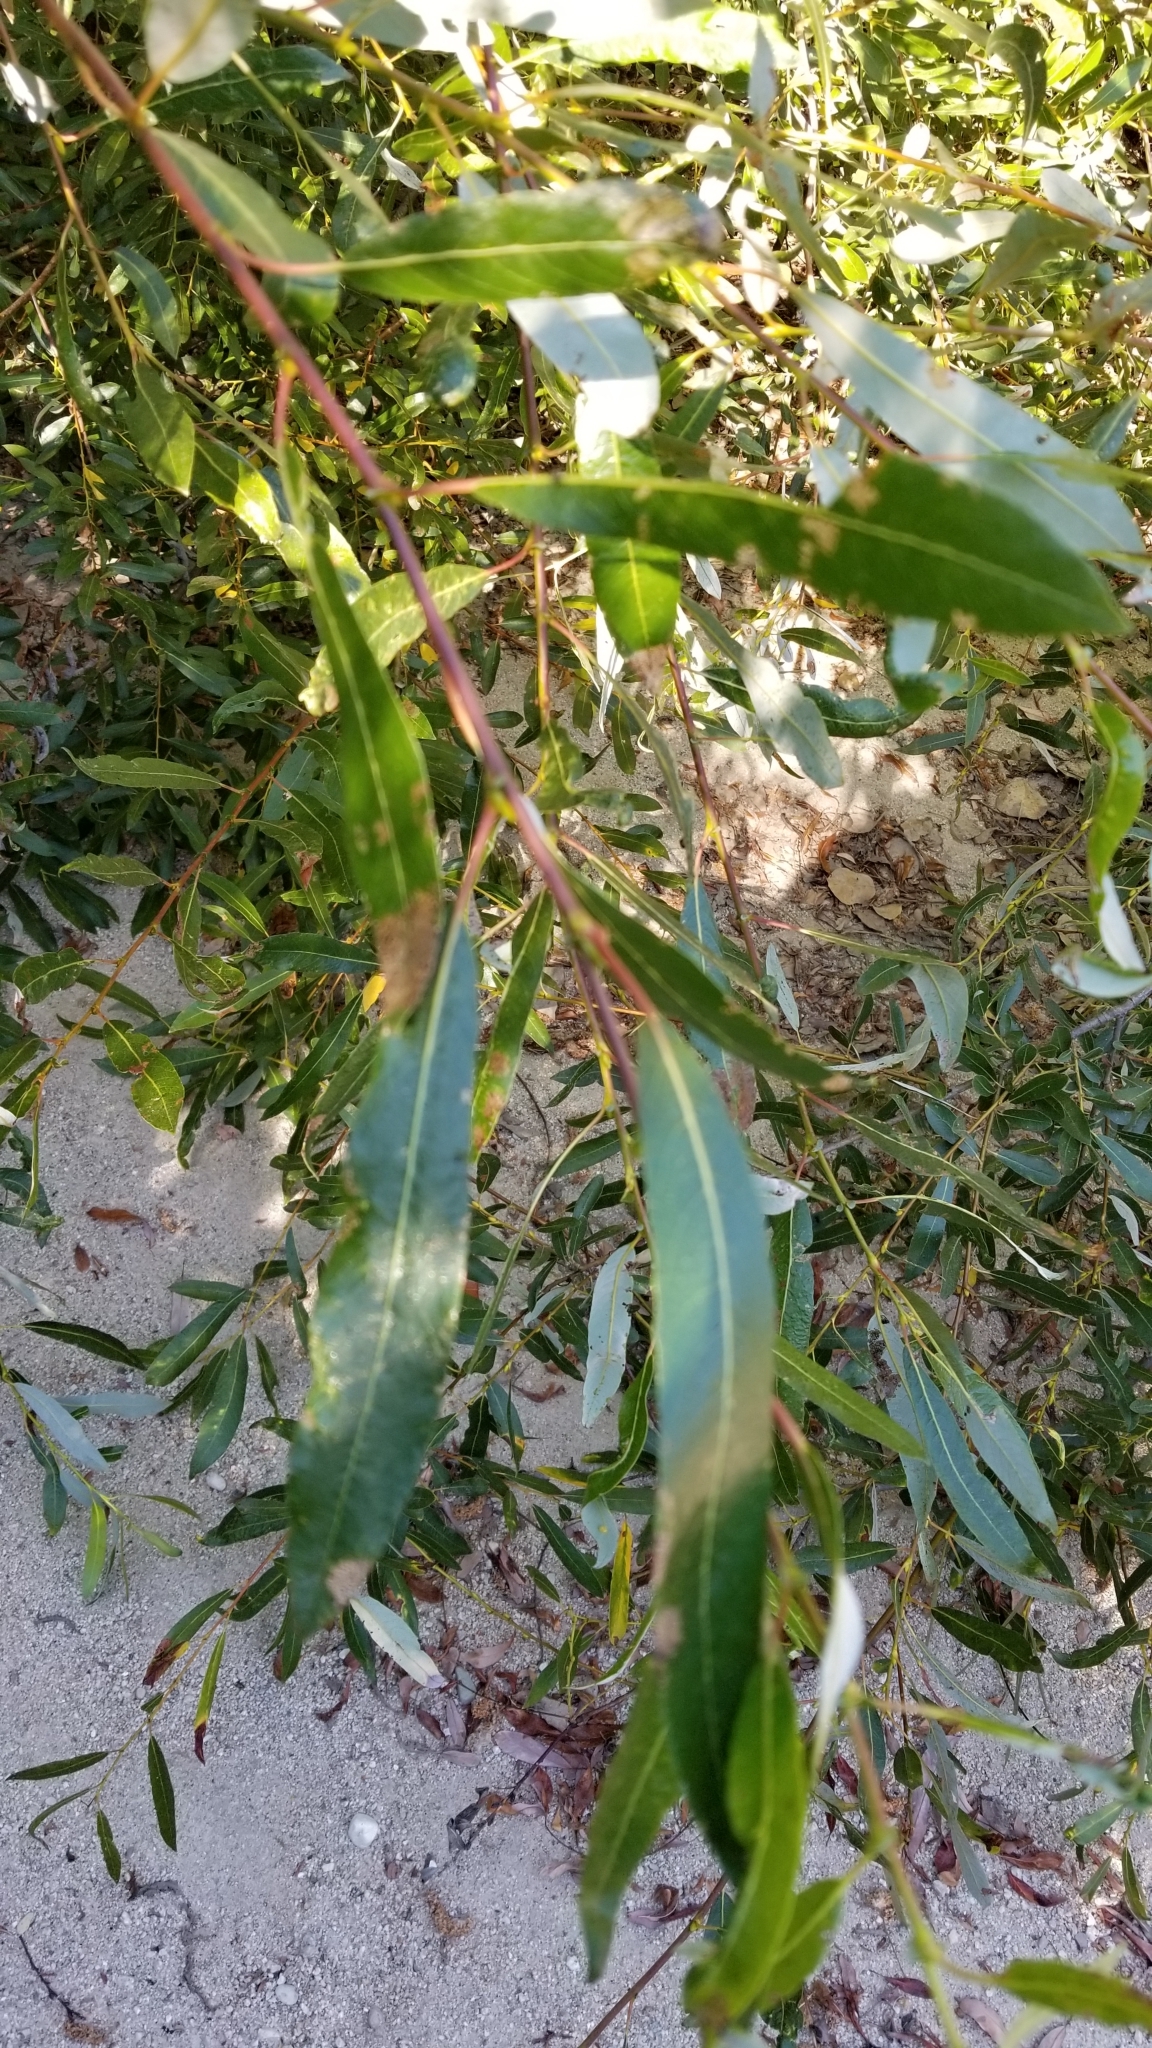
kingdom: Plantae
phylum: Tracheophyta
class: Magnoliopsida
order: Malpighiales
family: Salicaceae
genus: Salix
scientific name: Salix lasiolepis
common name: Arroyo willow
